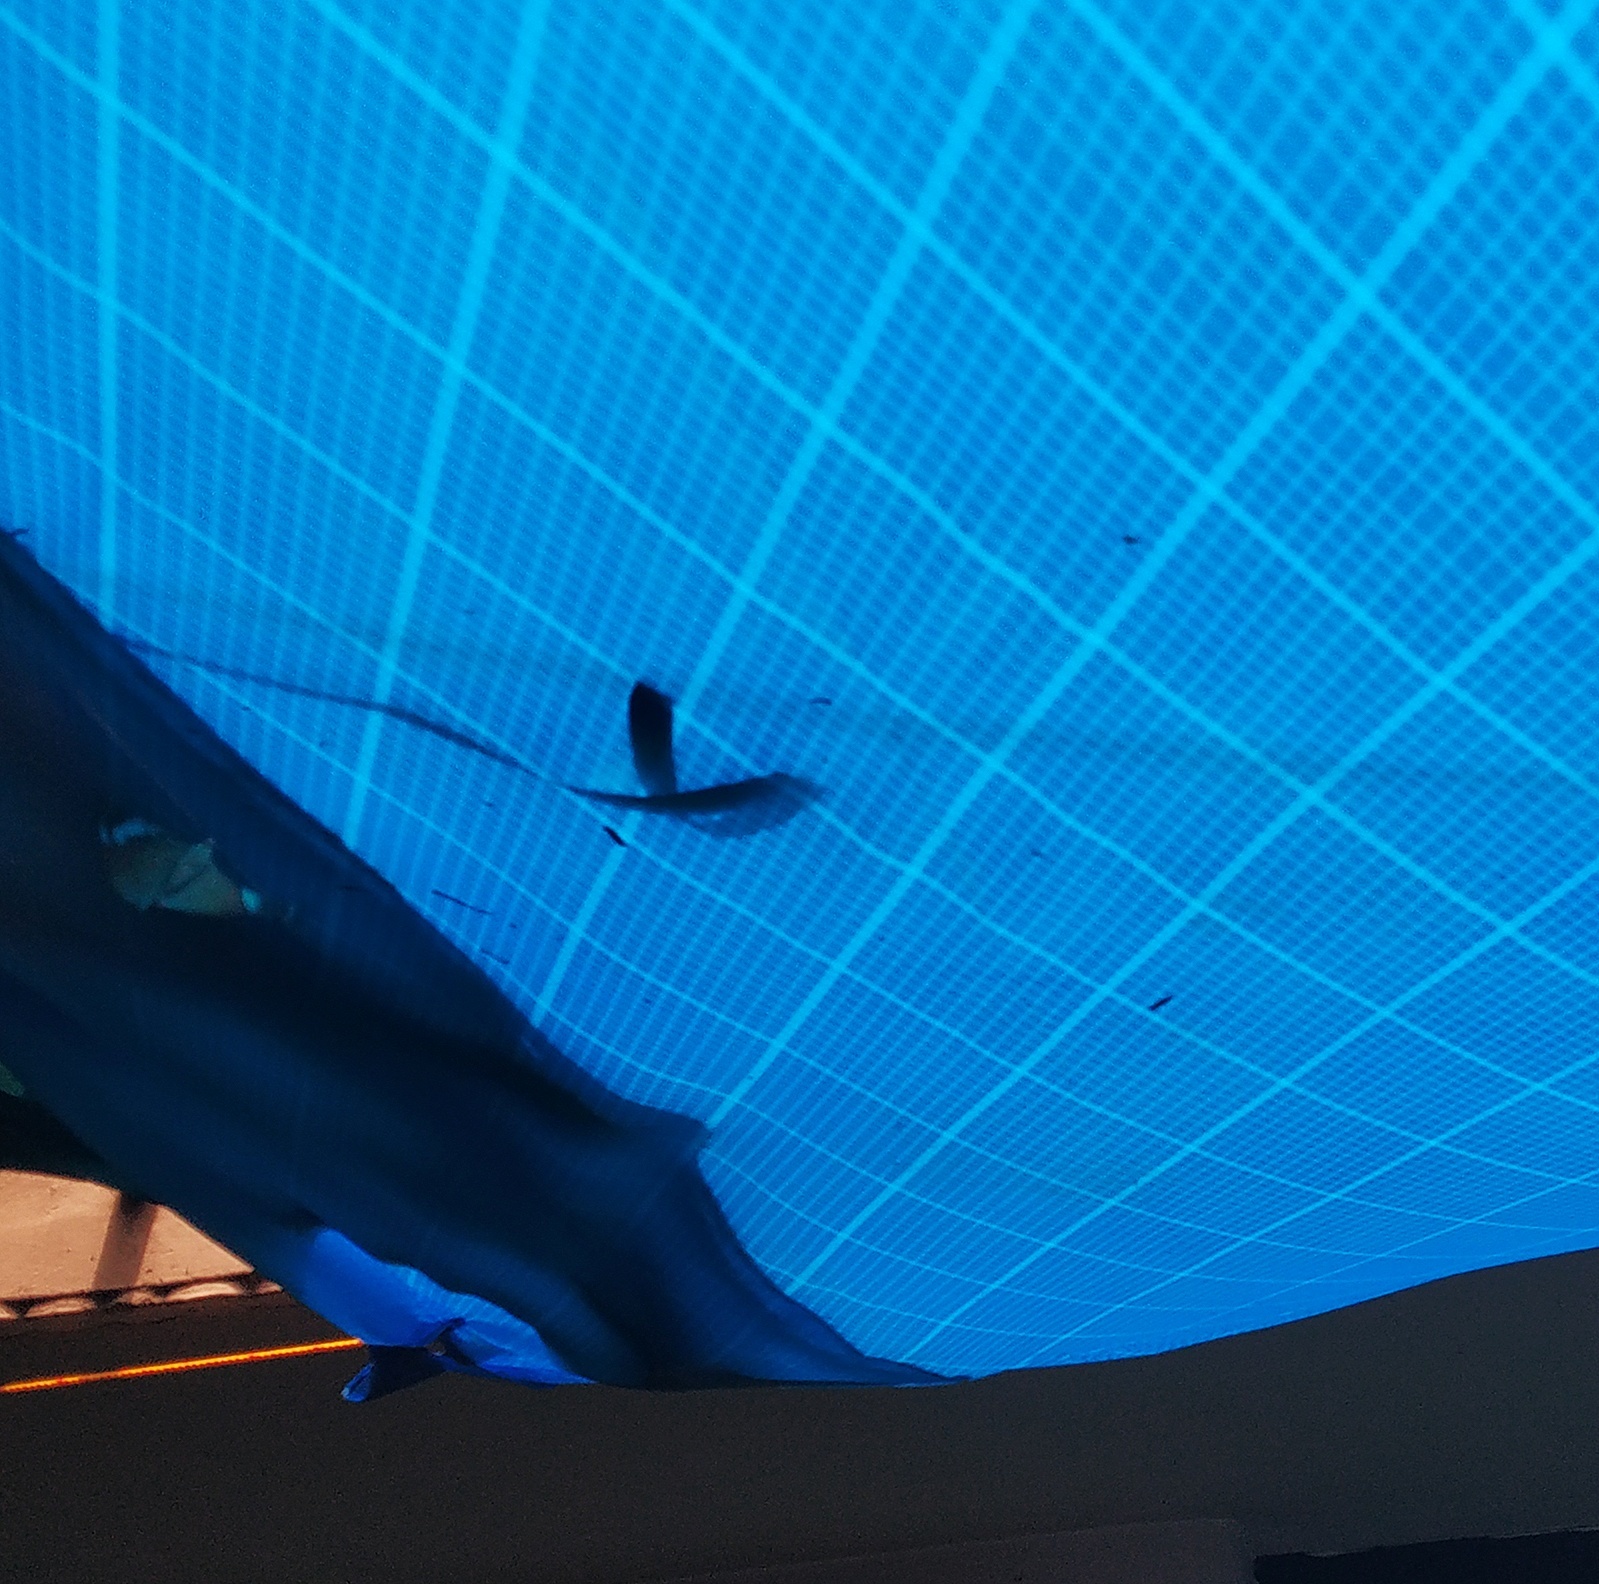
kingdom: Animalia
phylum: Arthropoda
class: Insecta
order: Lepidoptera
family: Nymphalidae
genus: Euthalia
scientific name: Euthalia lubentina
